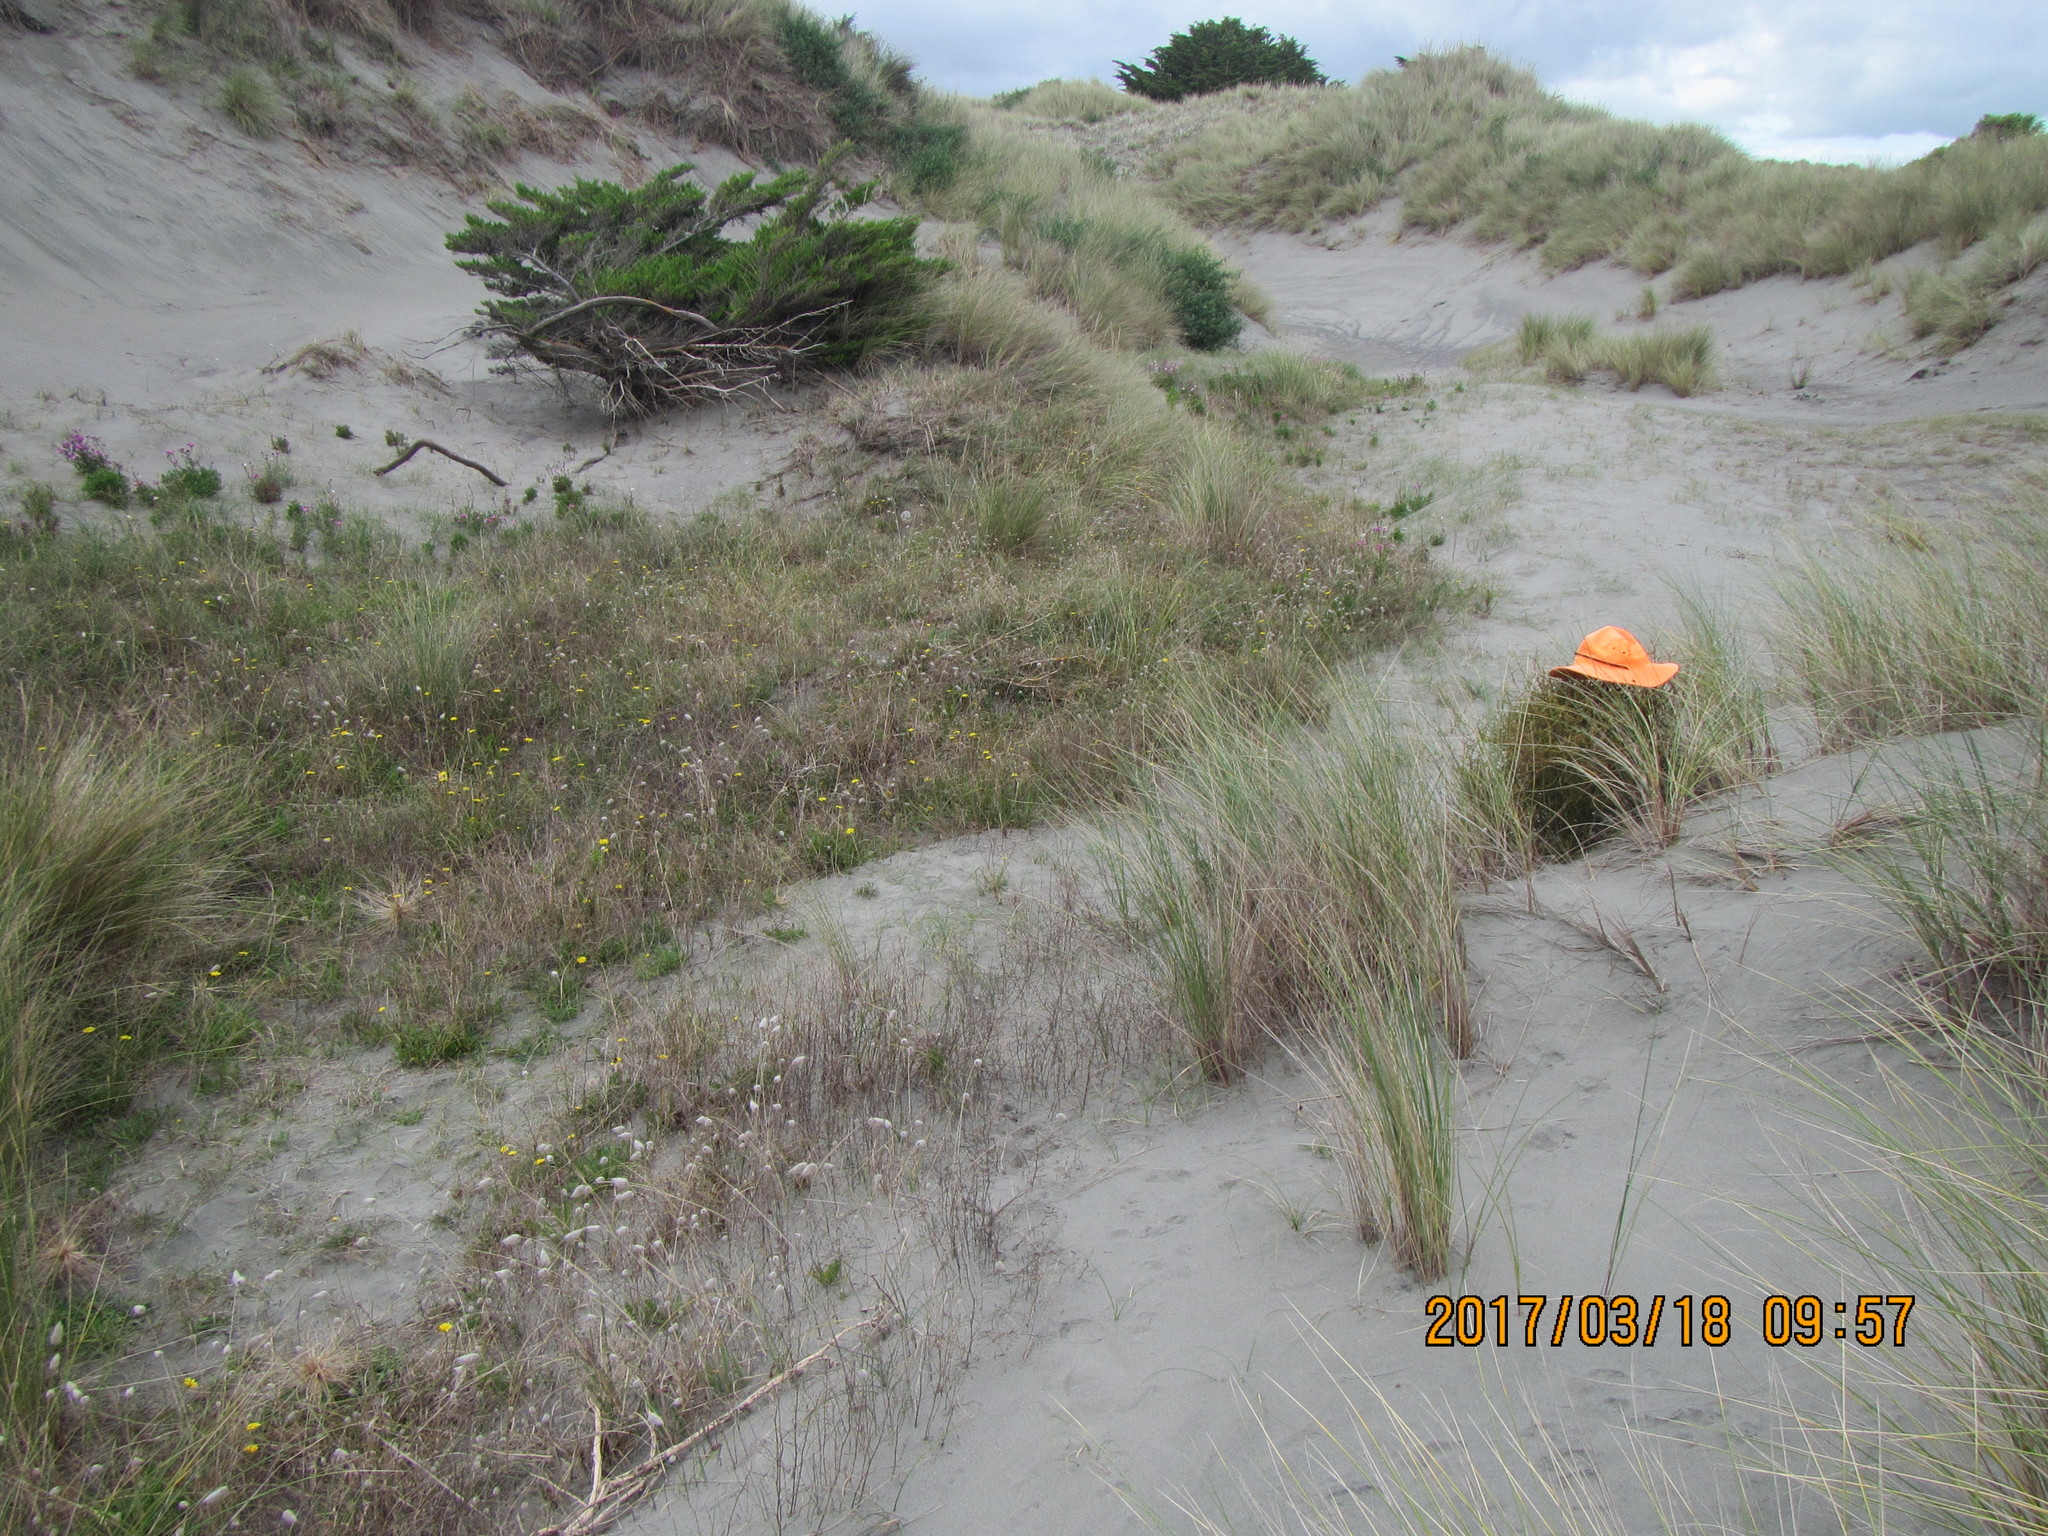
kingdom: Plantae
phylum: Tracheophyta
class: Magnoliopsida
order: Gentianales
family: Rubiaceae
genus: Coprosma
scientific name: Coprosma acerosa
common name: Sand coprosma
